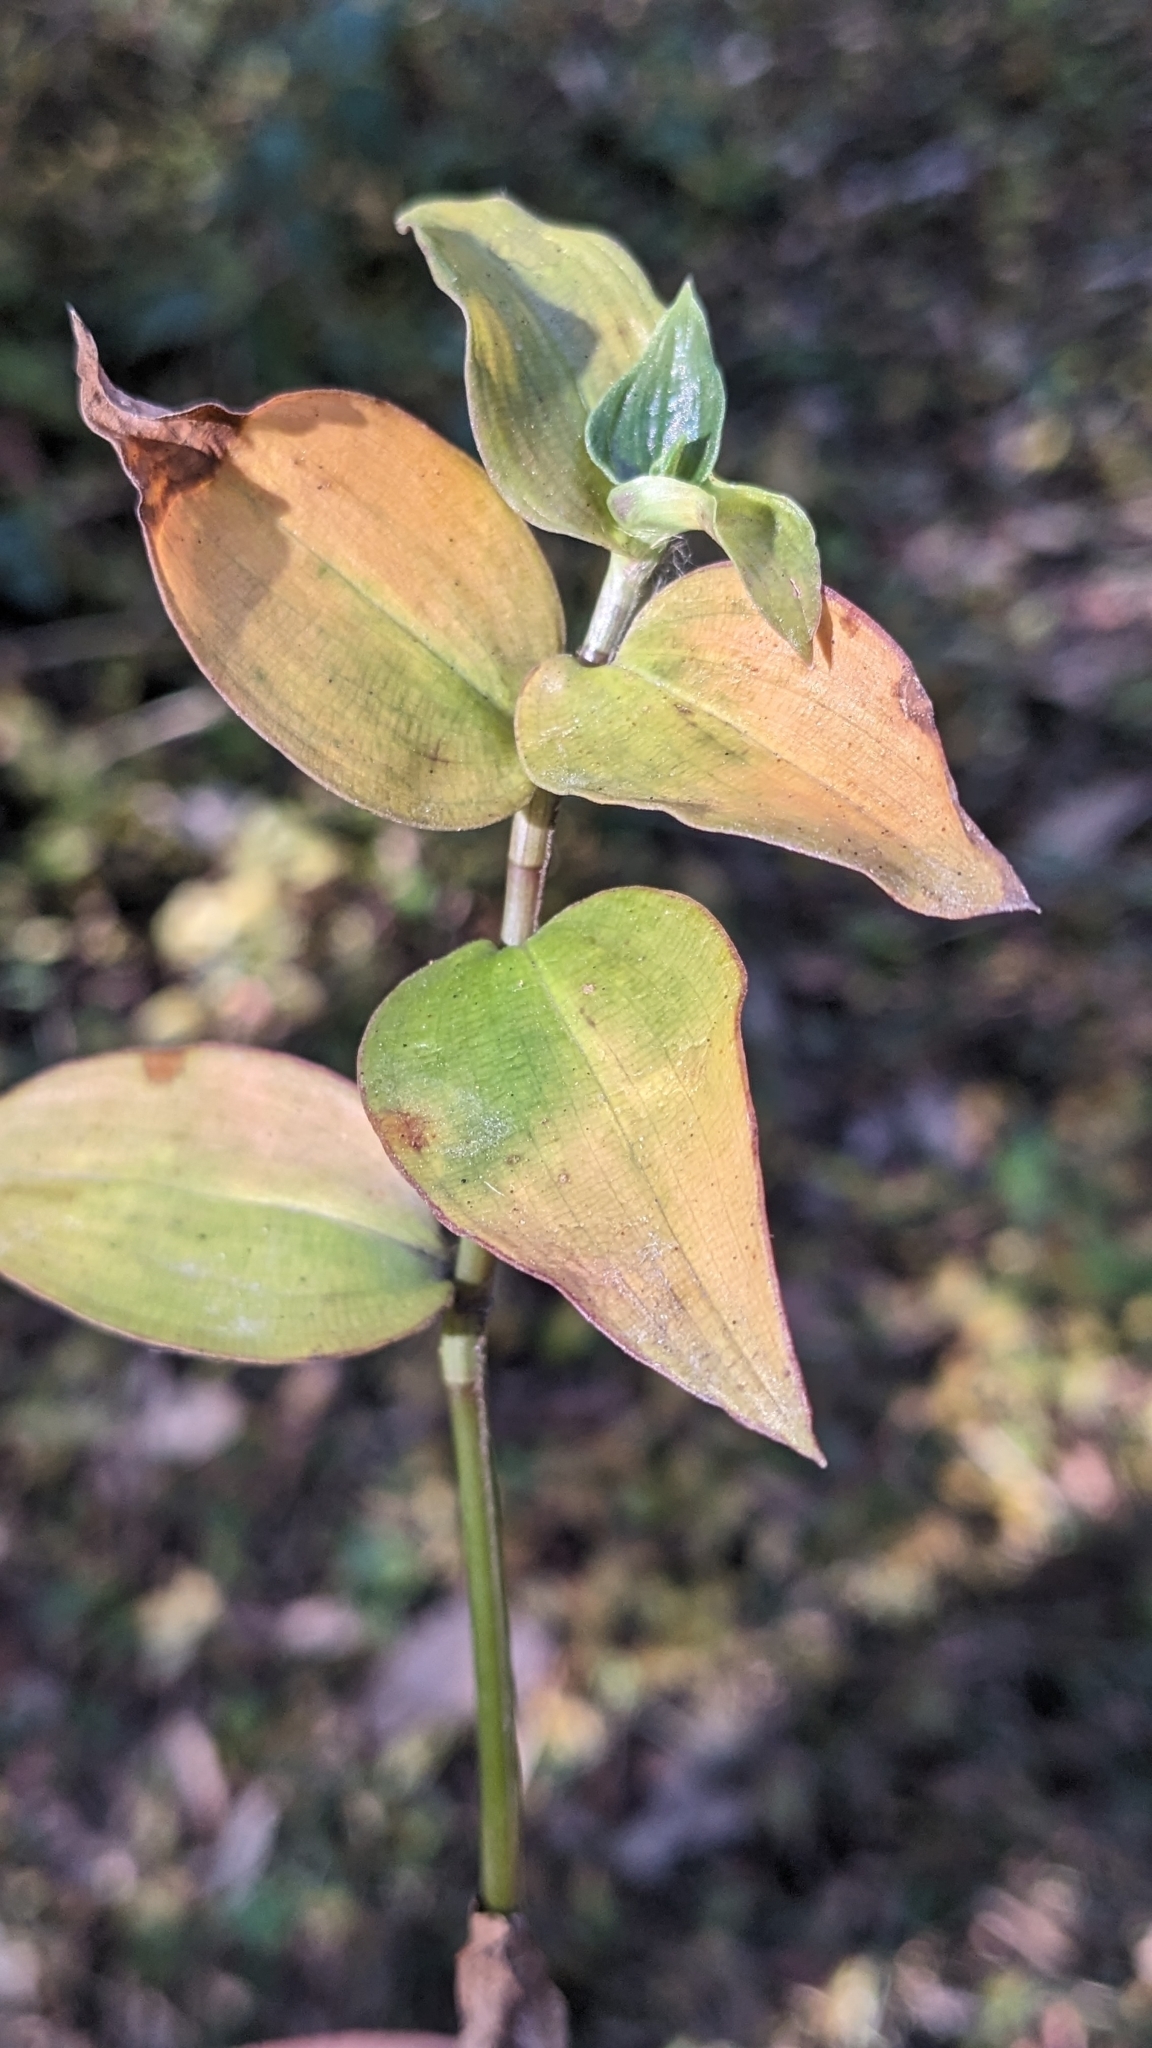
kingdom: Plantae
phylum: Tracheophyta
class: Liliopsida
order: Commelinales
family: Commelinaceae
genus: Tradescantia
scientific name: Tradescantia fluminensis
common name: Wandering-jew
